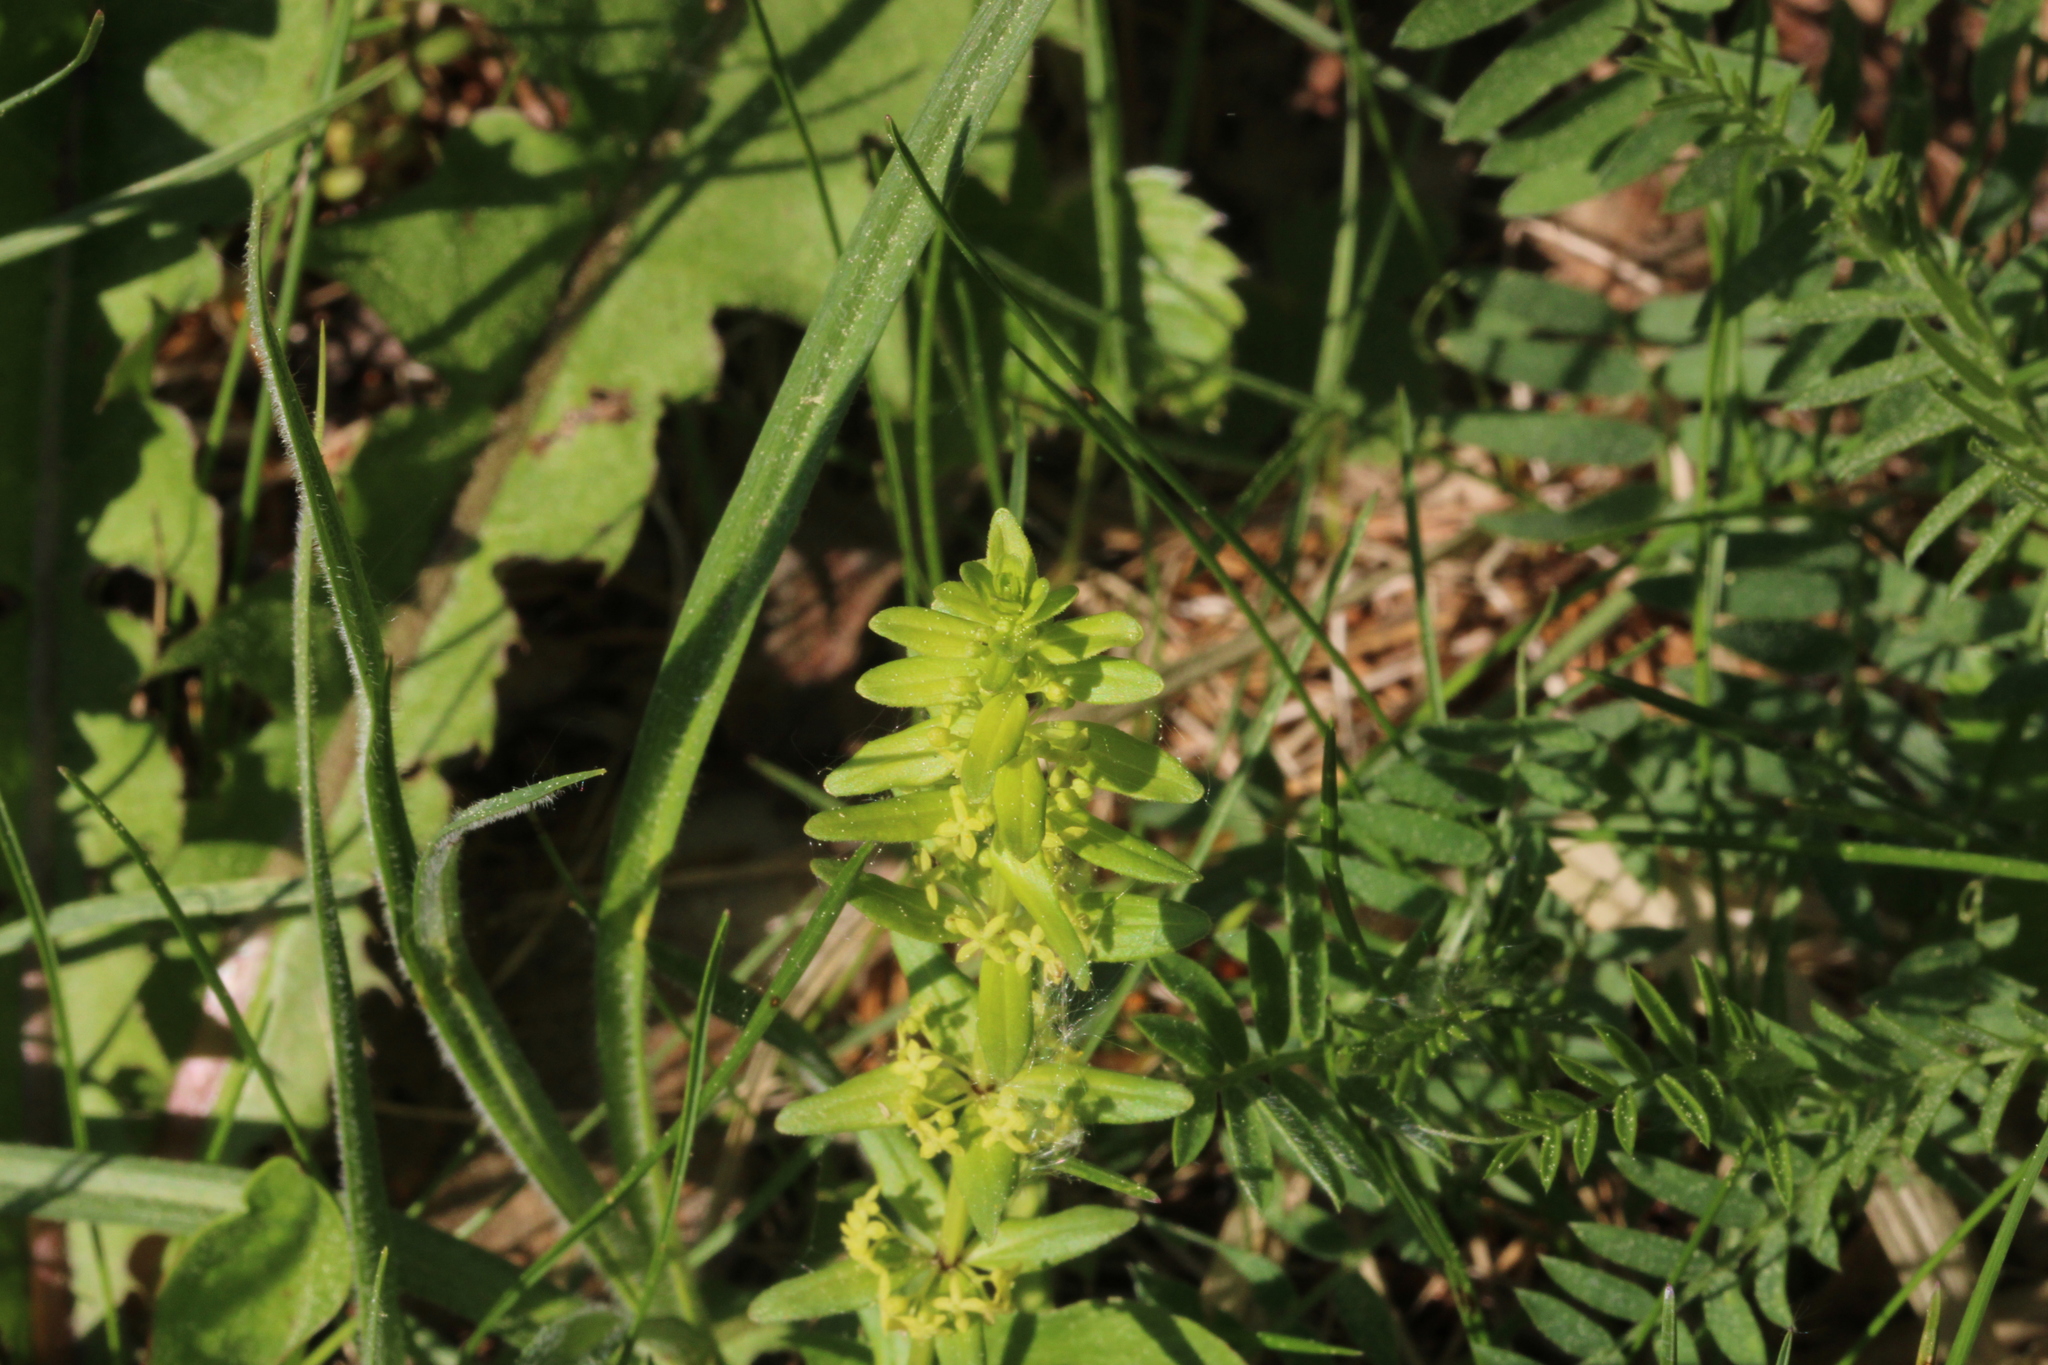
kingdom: Plantae
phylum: Tracheophyta
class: Magnoliopsida
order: Gentianales
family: Rubiaceae
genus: Cruciata
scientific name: Cruciata glabra
